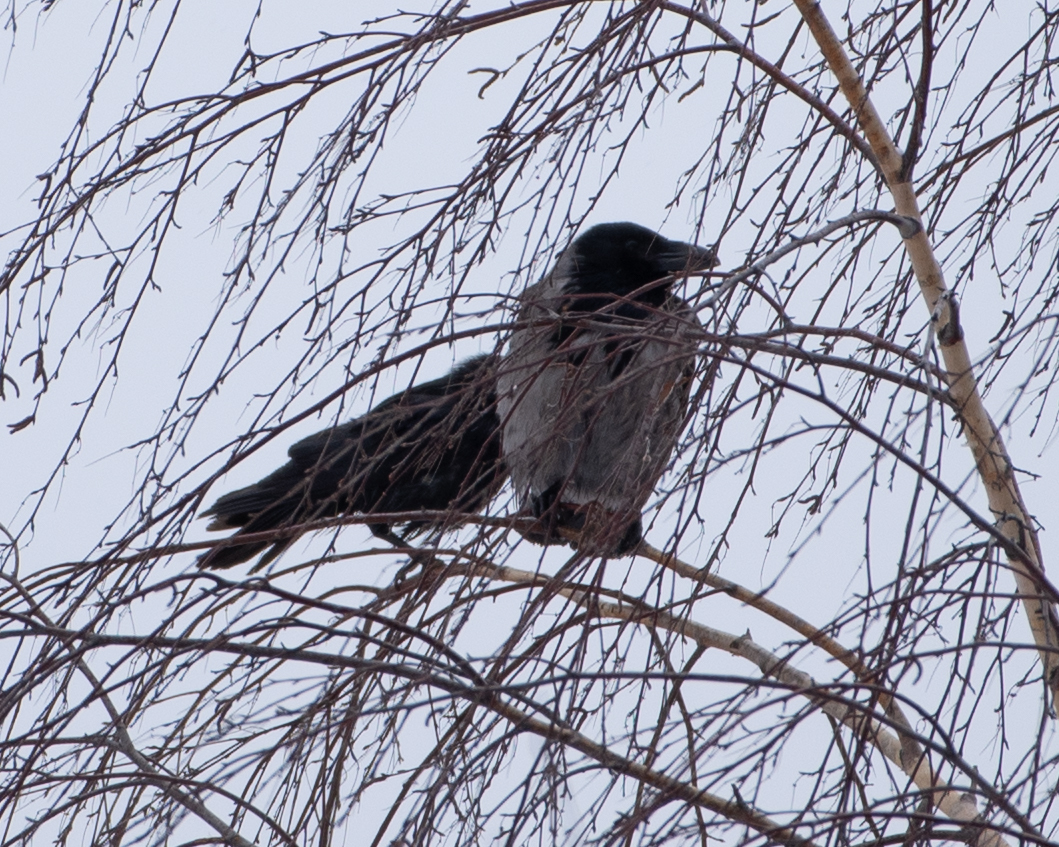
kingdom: Animalia
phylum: Chordata
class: Aves
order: Passeriformes
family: Corvidae
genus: Corvus
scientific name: Corvus cornix
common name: Hooded crow
